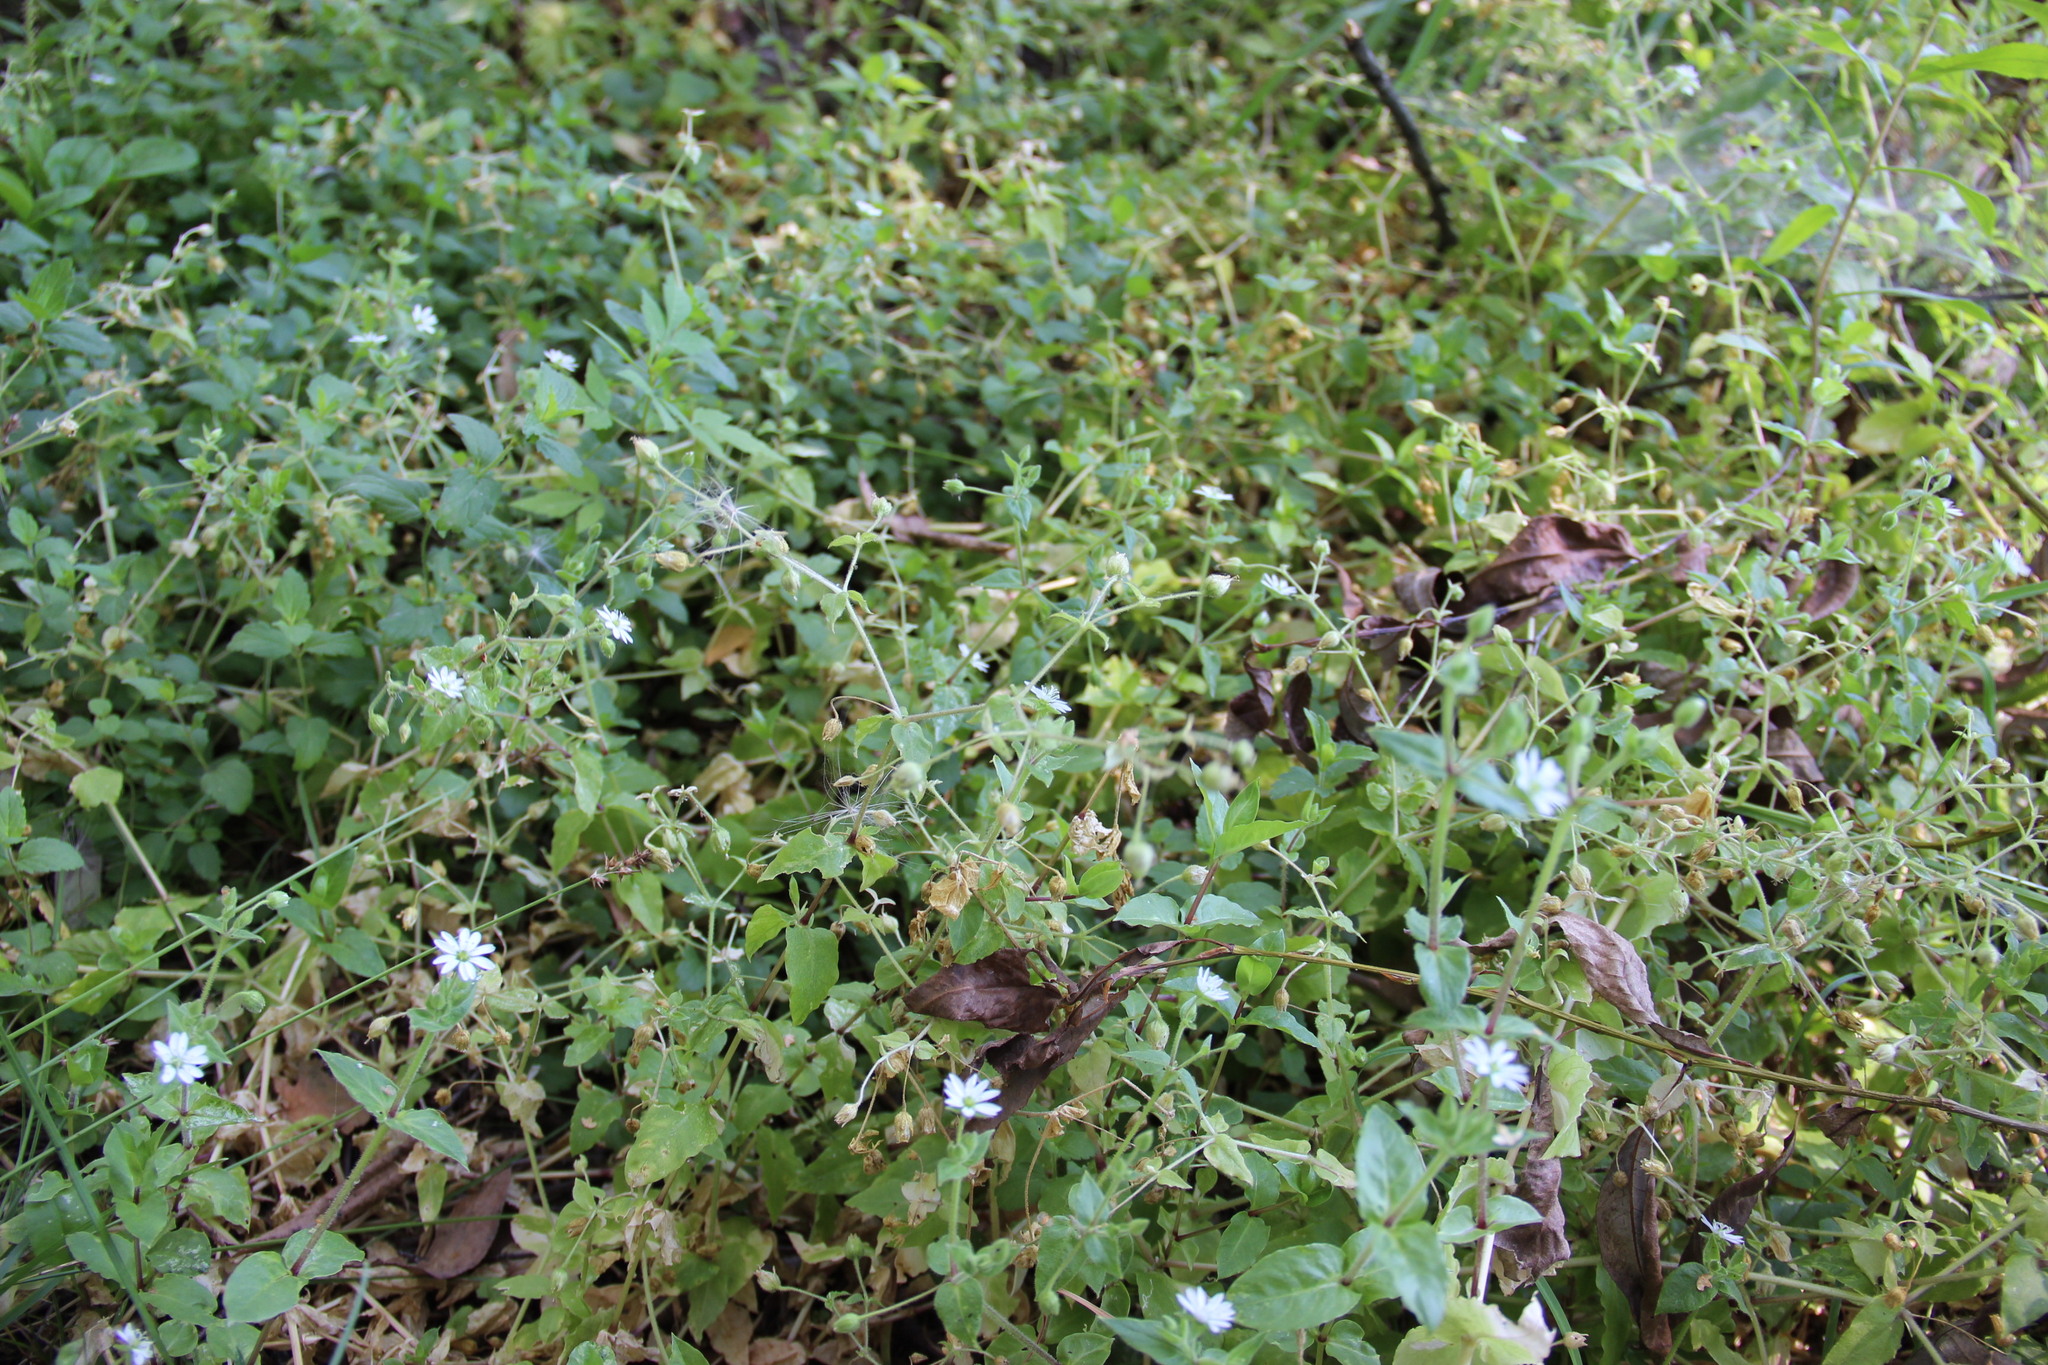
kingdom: Plantae
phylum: Tracheophyta
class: Magnoliopsida
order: Caryophyllales
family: Caryophyllaceae
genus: Stellaria
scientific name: Stellaria aquatica
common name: Water chickweed
